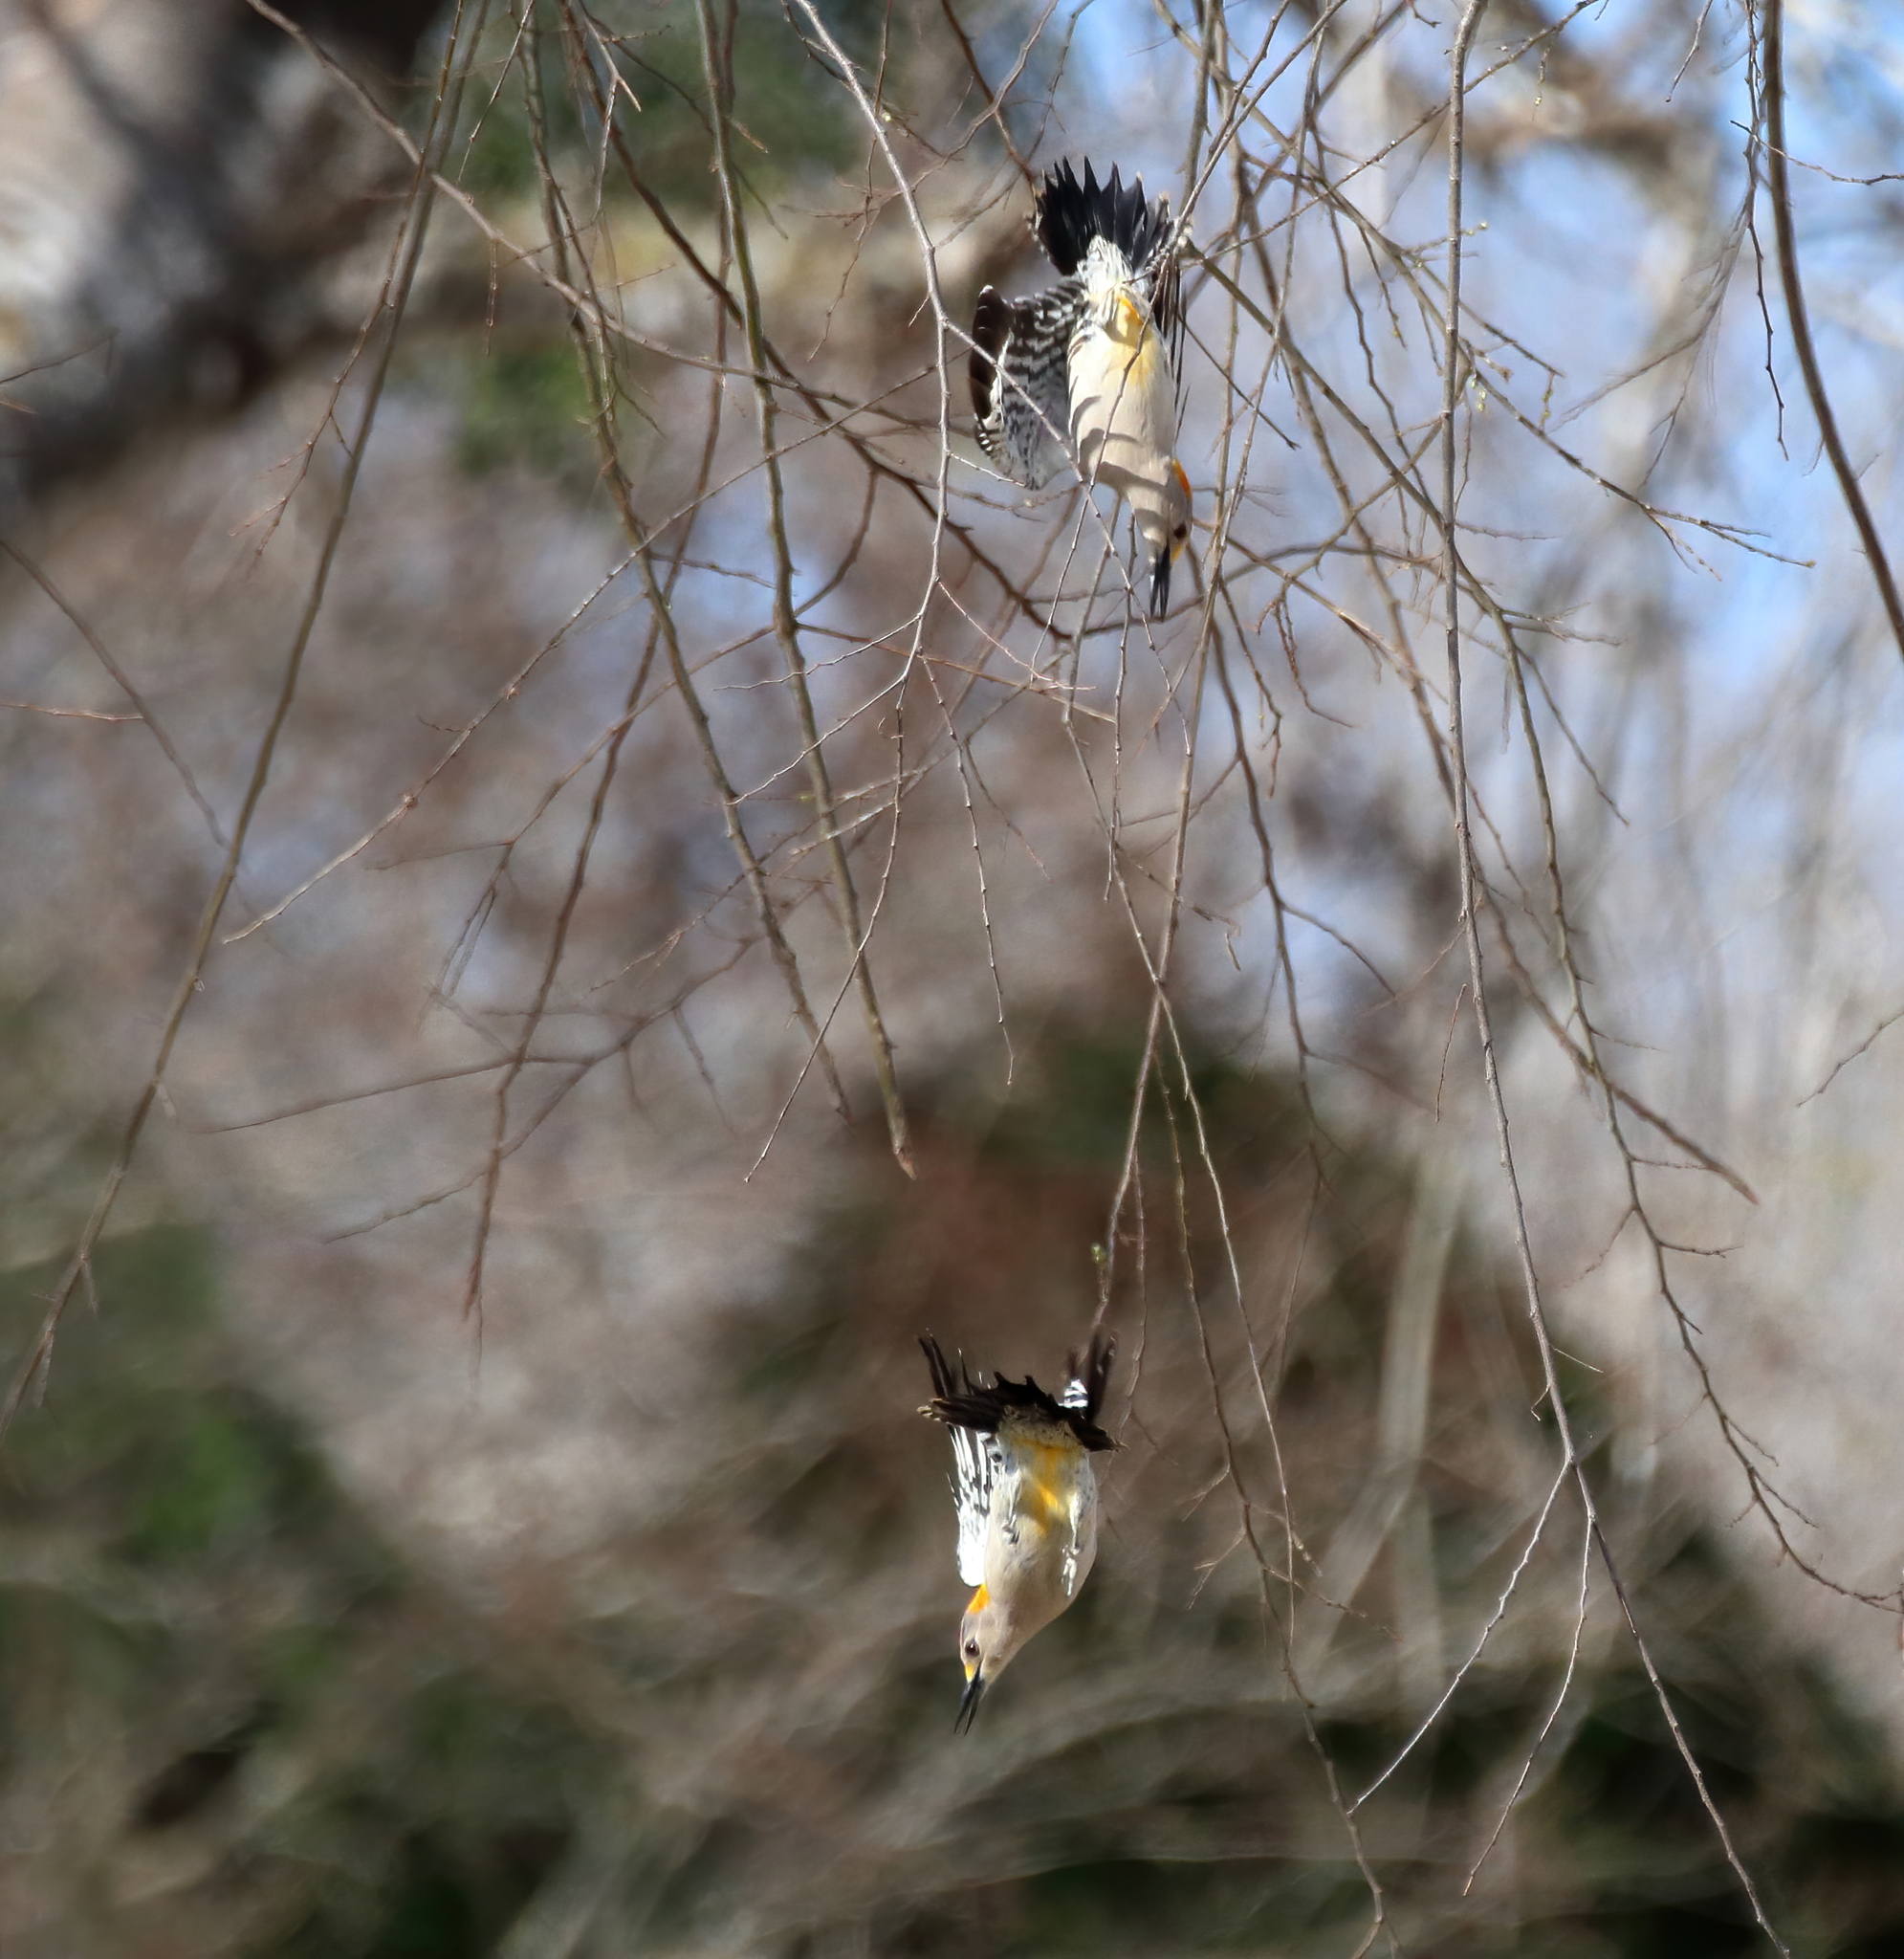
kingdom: Animalia
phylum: Chordata
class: Aves
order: Piciformes
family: Picidae
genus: Melanerpes
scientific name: Melanerpes aurifrons
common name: Golden-fronted woodpecker
